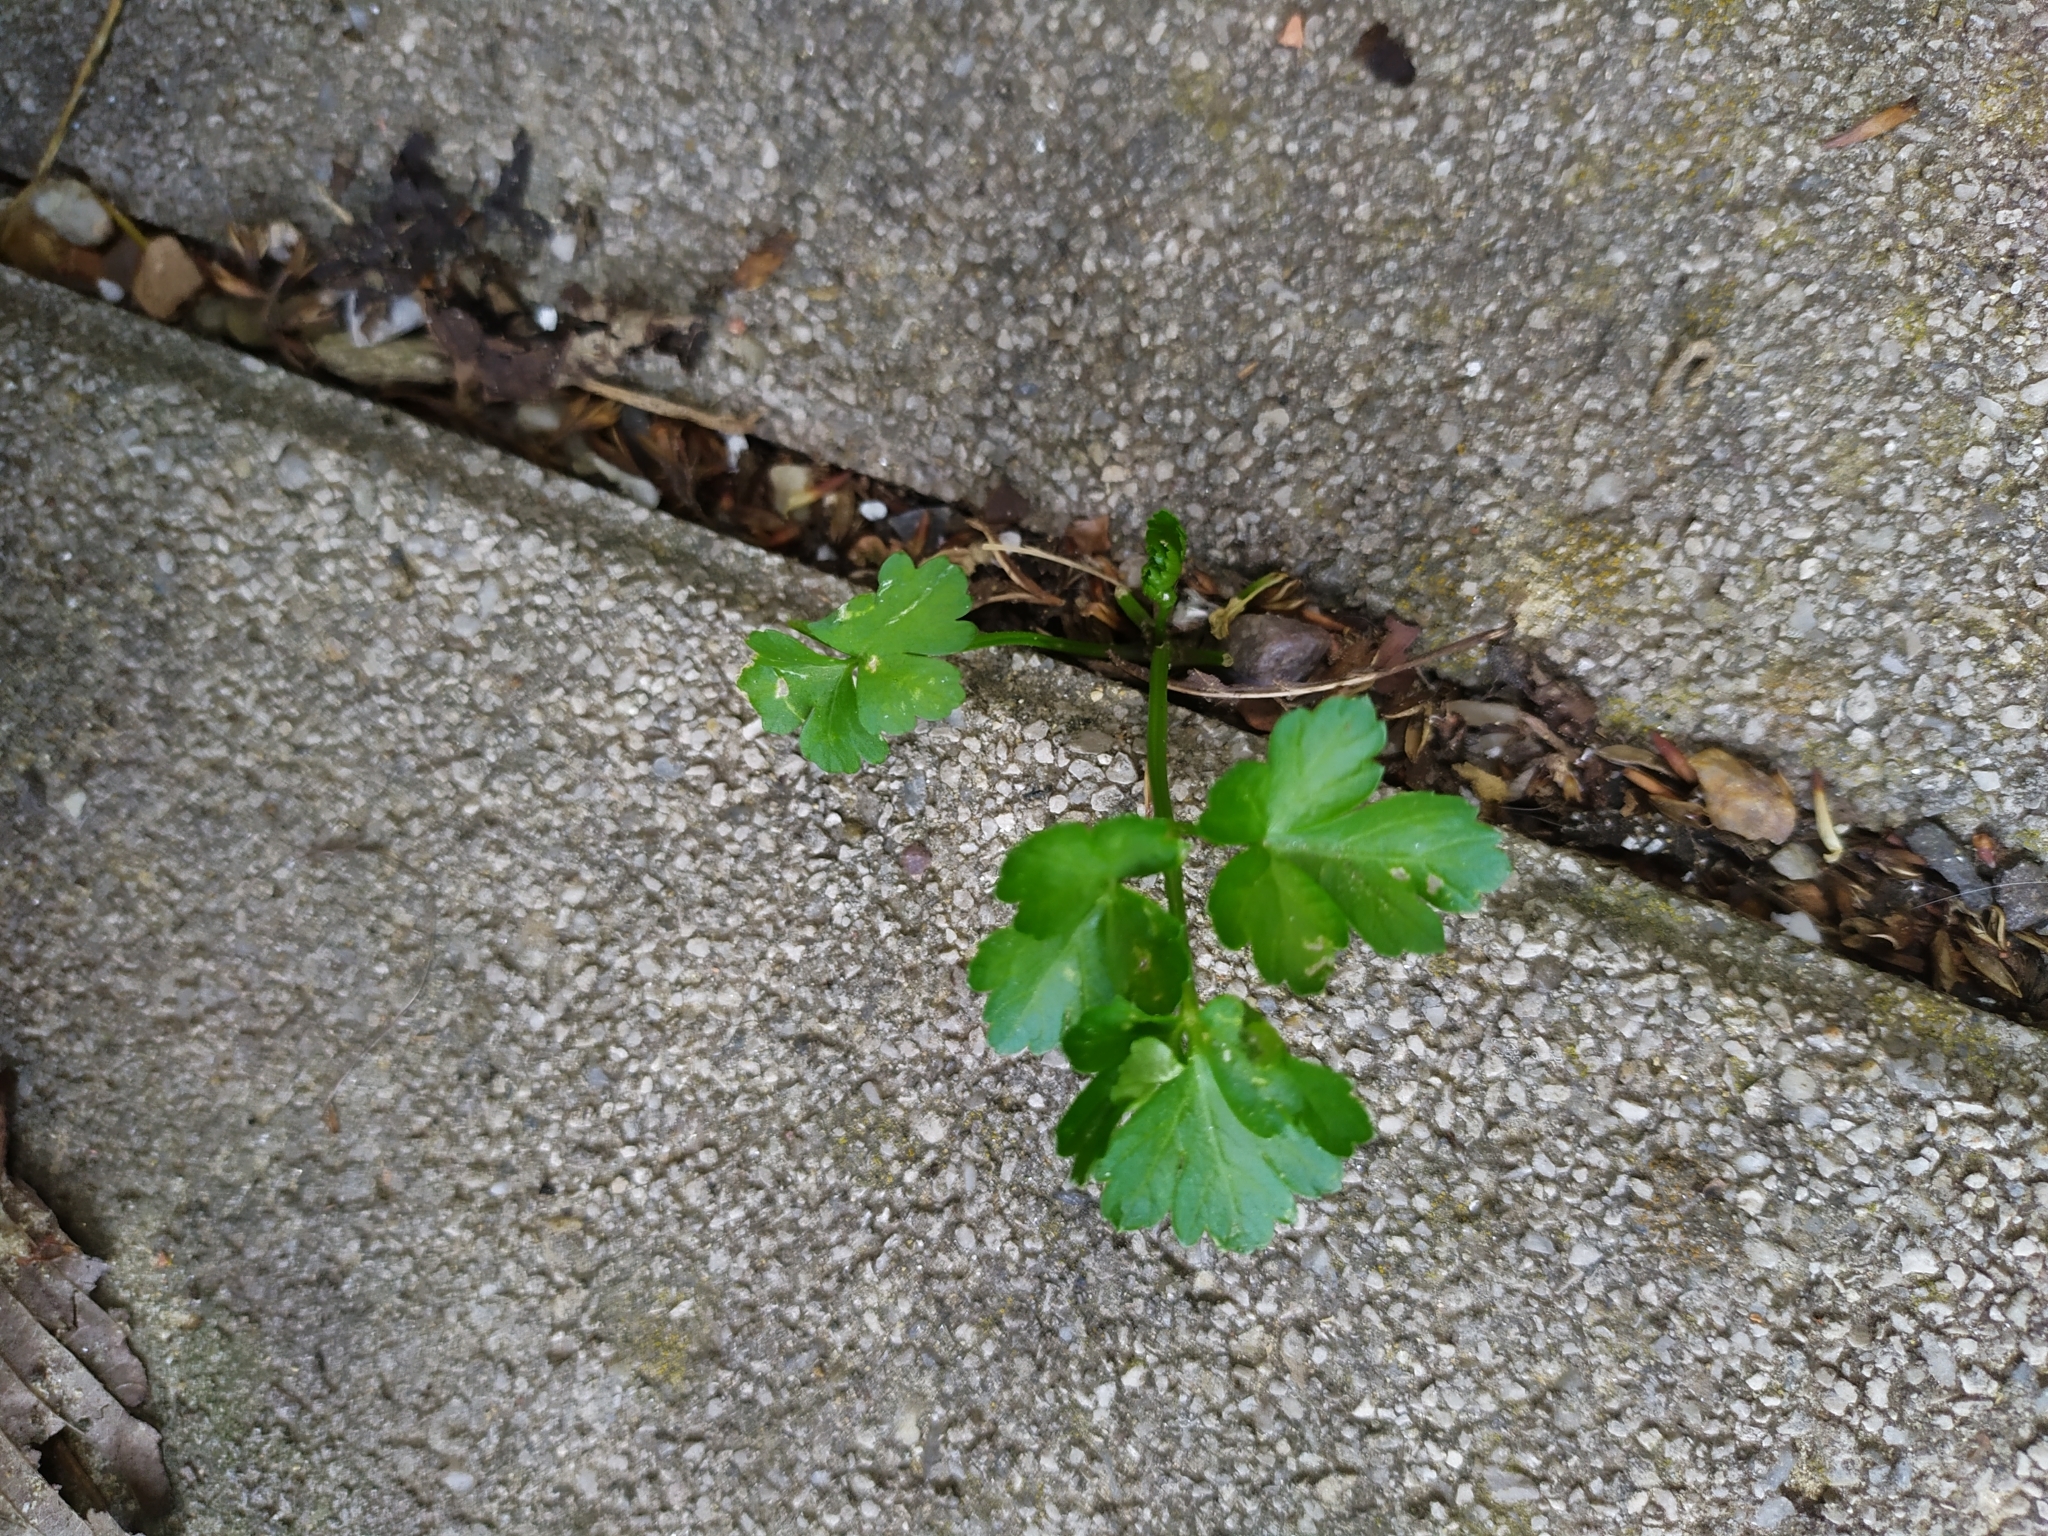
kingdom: Plantae
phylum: Tracheophyta
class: Magnoliopsida
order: Apiales
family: Apiaceae
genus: Petroselinum
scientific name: Petroselinum crispum
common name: Parsley
